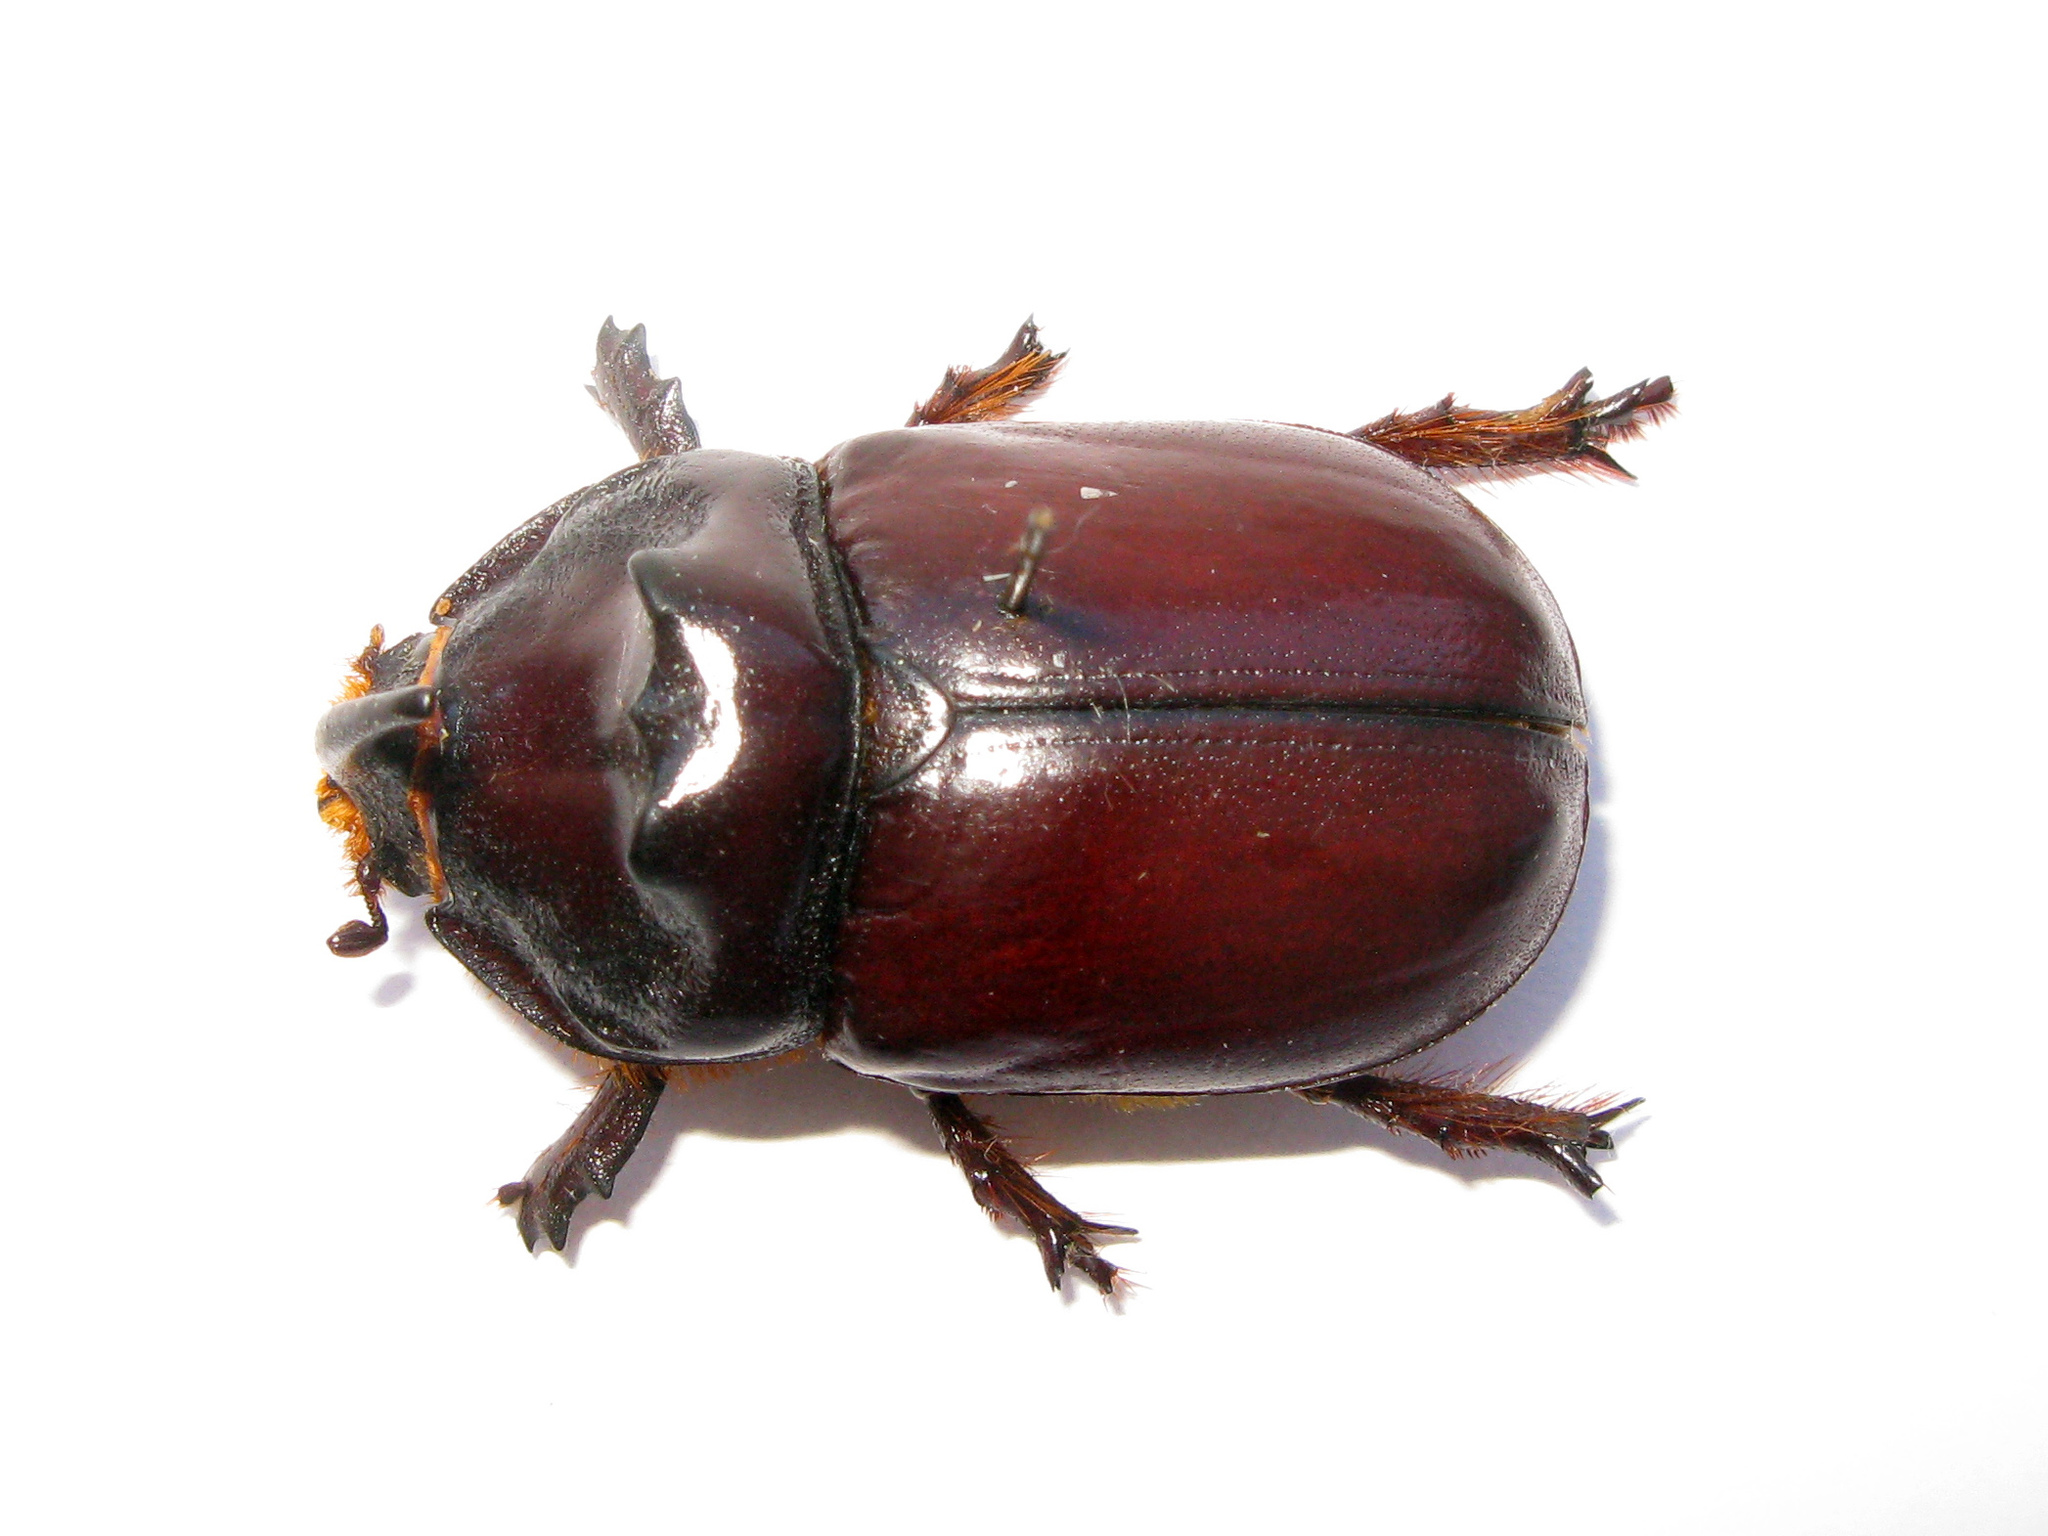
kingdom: Animalia
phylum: Arthropoda
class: Insecta
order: Coleoptera
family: Scarabaeidae
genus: Oryctes
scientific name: Oryctes nasicornis
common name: European rhinoceros beetle
